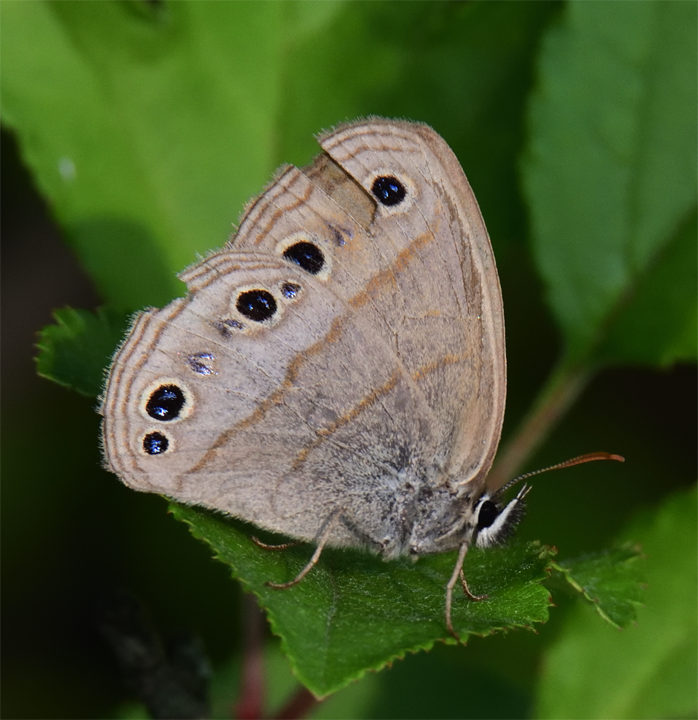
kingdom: Animalia
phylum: Arthropoda
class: Insecta
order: Lepidoptera
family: Nymphalidae
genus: Euptychia
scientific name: Euptychia cymela
